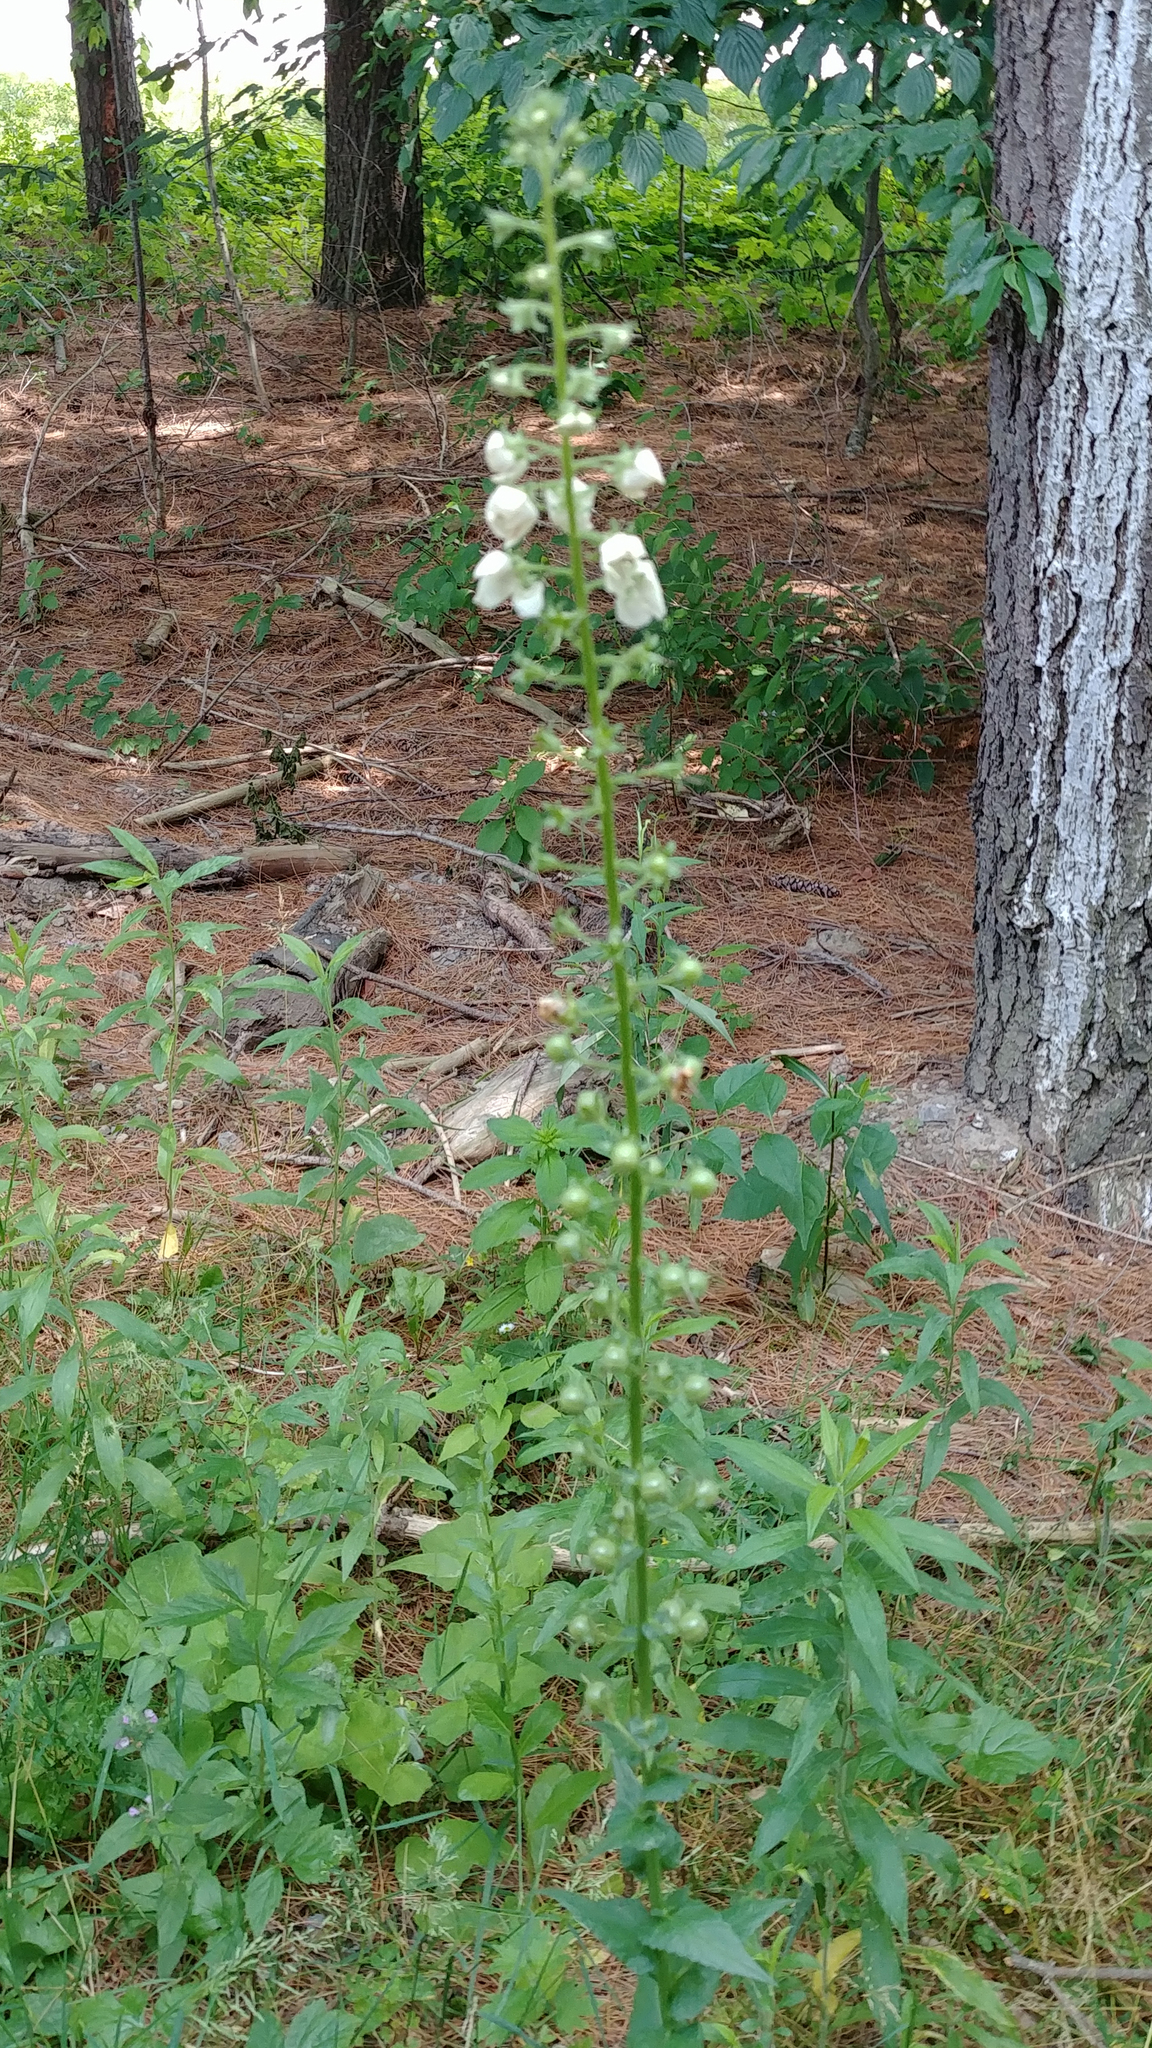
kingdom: Plantae
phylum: Tracheophyta
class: Magnoliopsida
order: Lamiales
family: Scrophulariaceae
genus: Verbascum
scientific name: Verbascum blattaria
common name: Moth mullein
